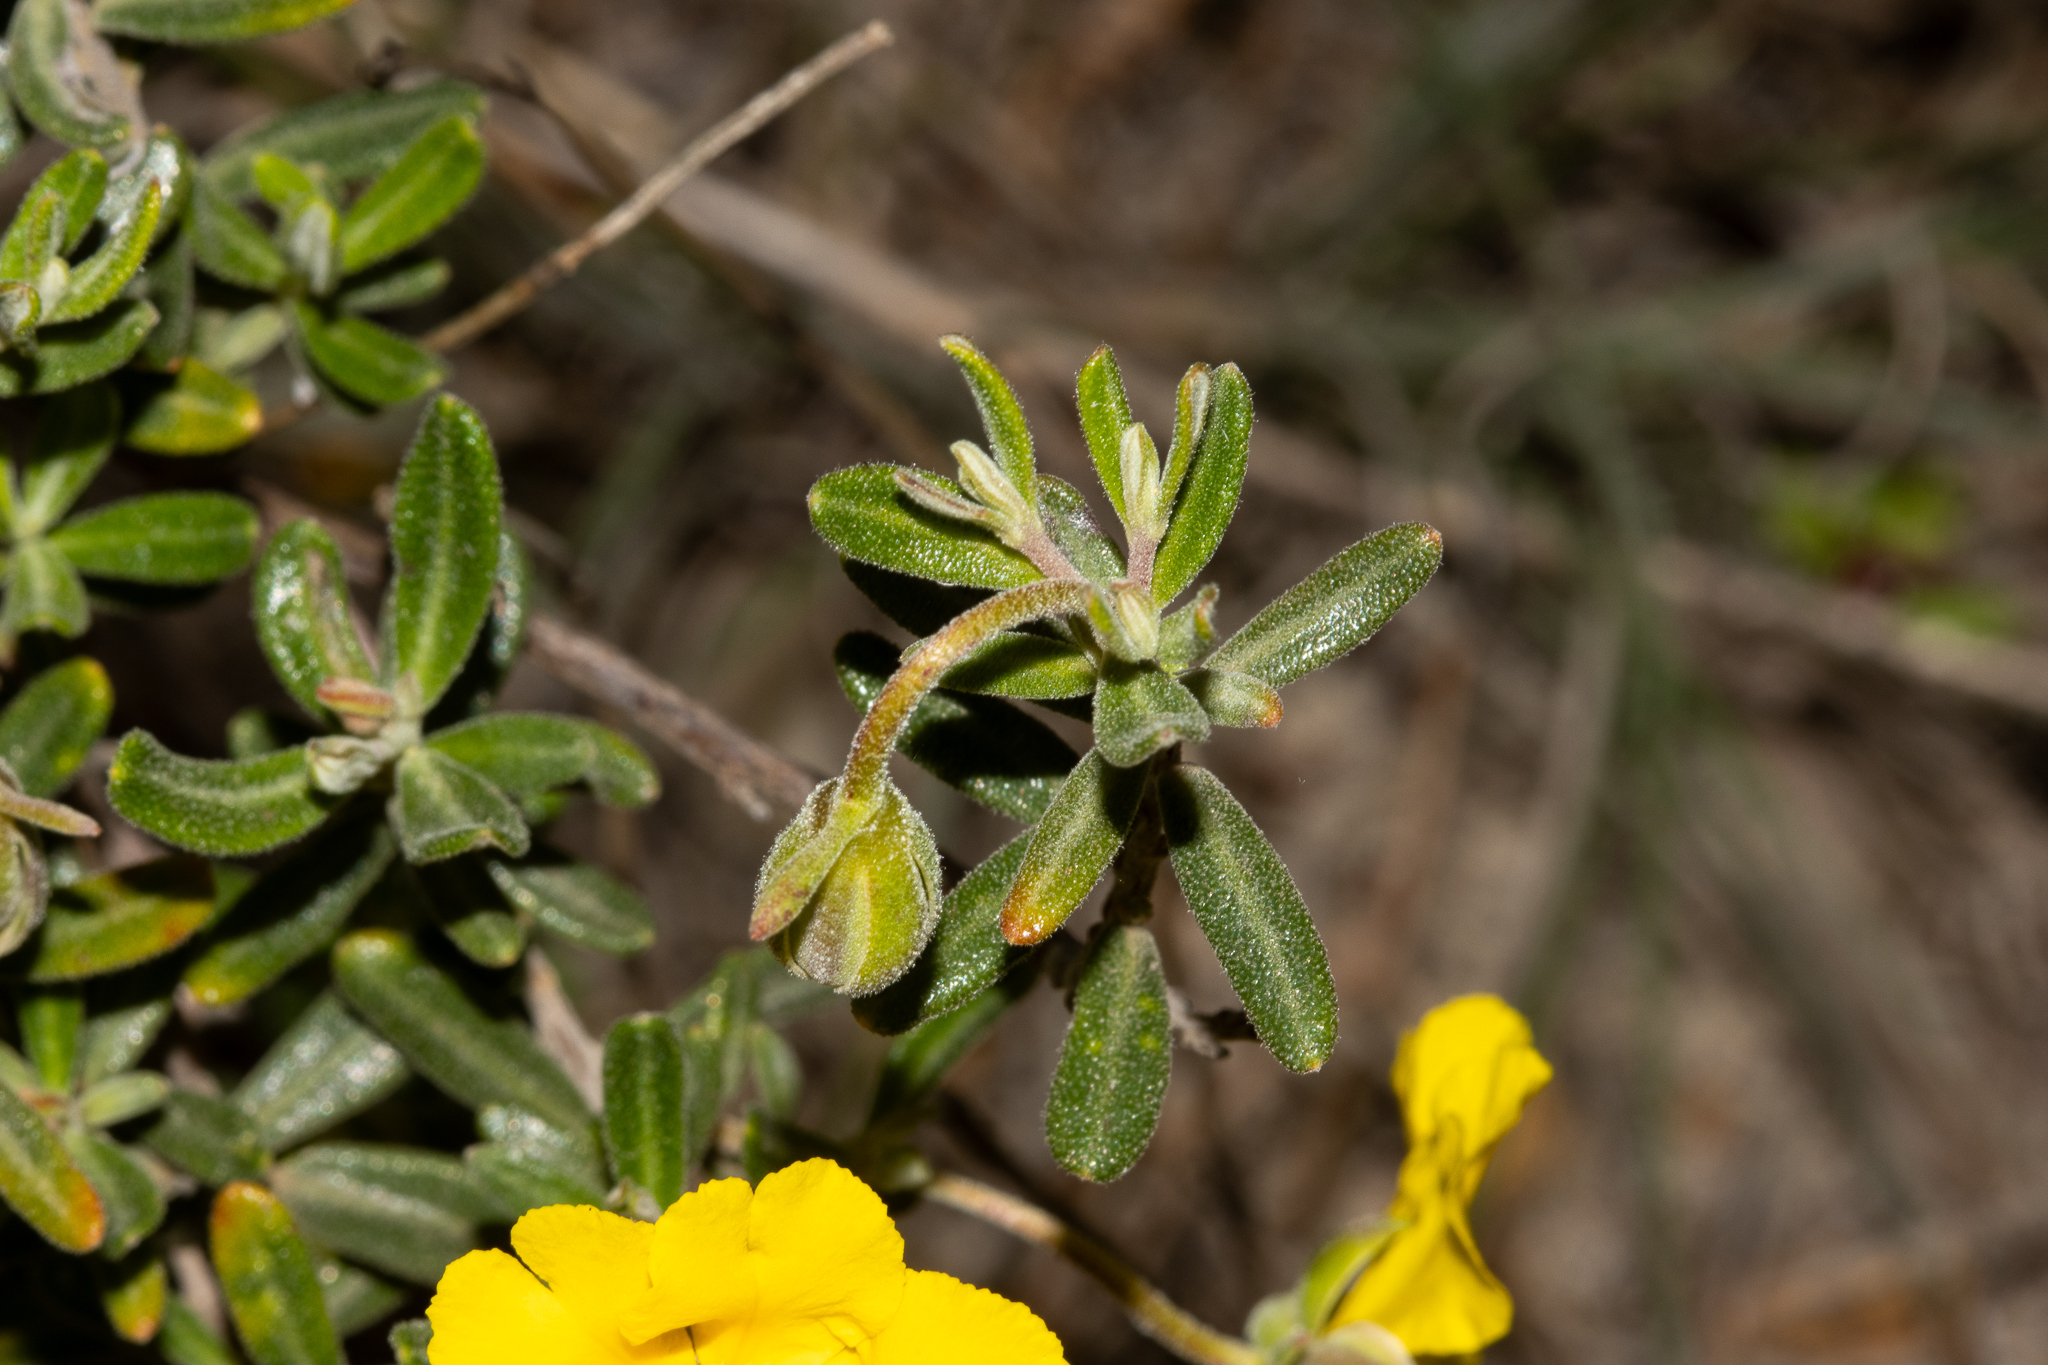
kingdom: Plantae
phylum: Tracheophyta
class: Magnoliopsida
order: Dilleniales
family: Dilleniaceae
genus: Hibbertia
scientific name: Hibbertia hypericoides
